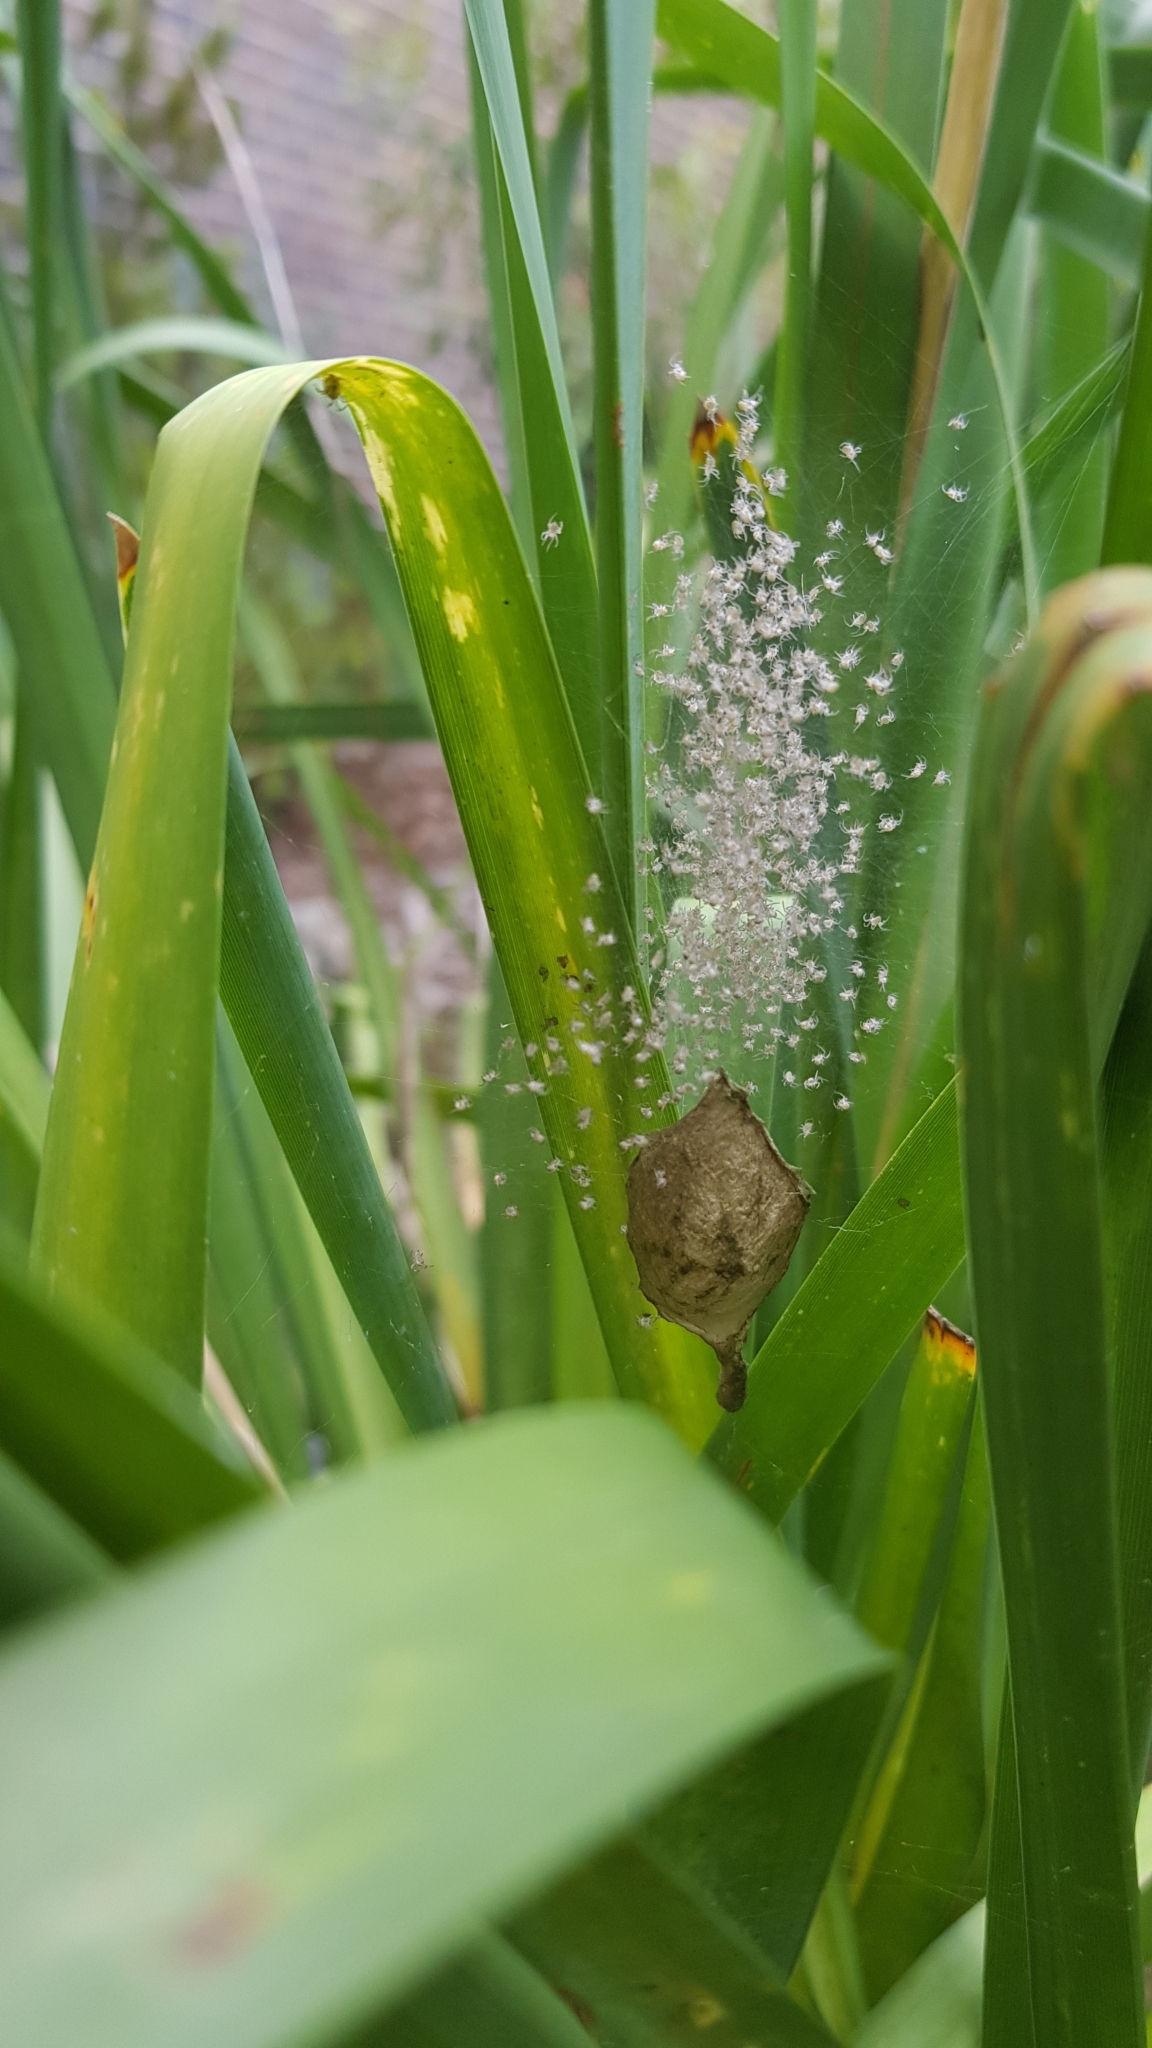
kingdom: Animalia
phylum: Arthropoda
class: Arachnida
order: Araneae
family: Araneidae
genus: Argiope
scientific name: Argiope keyserlingi
